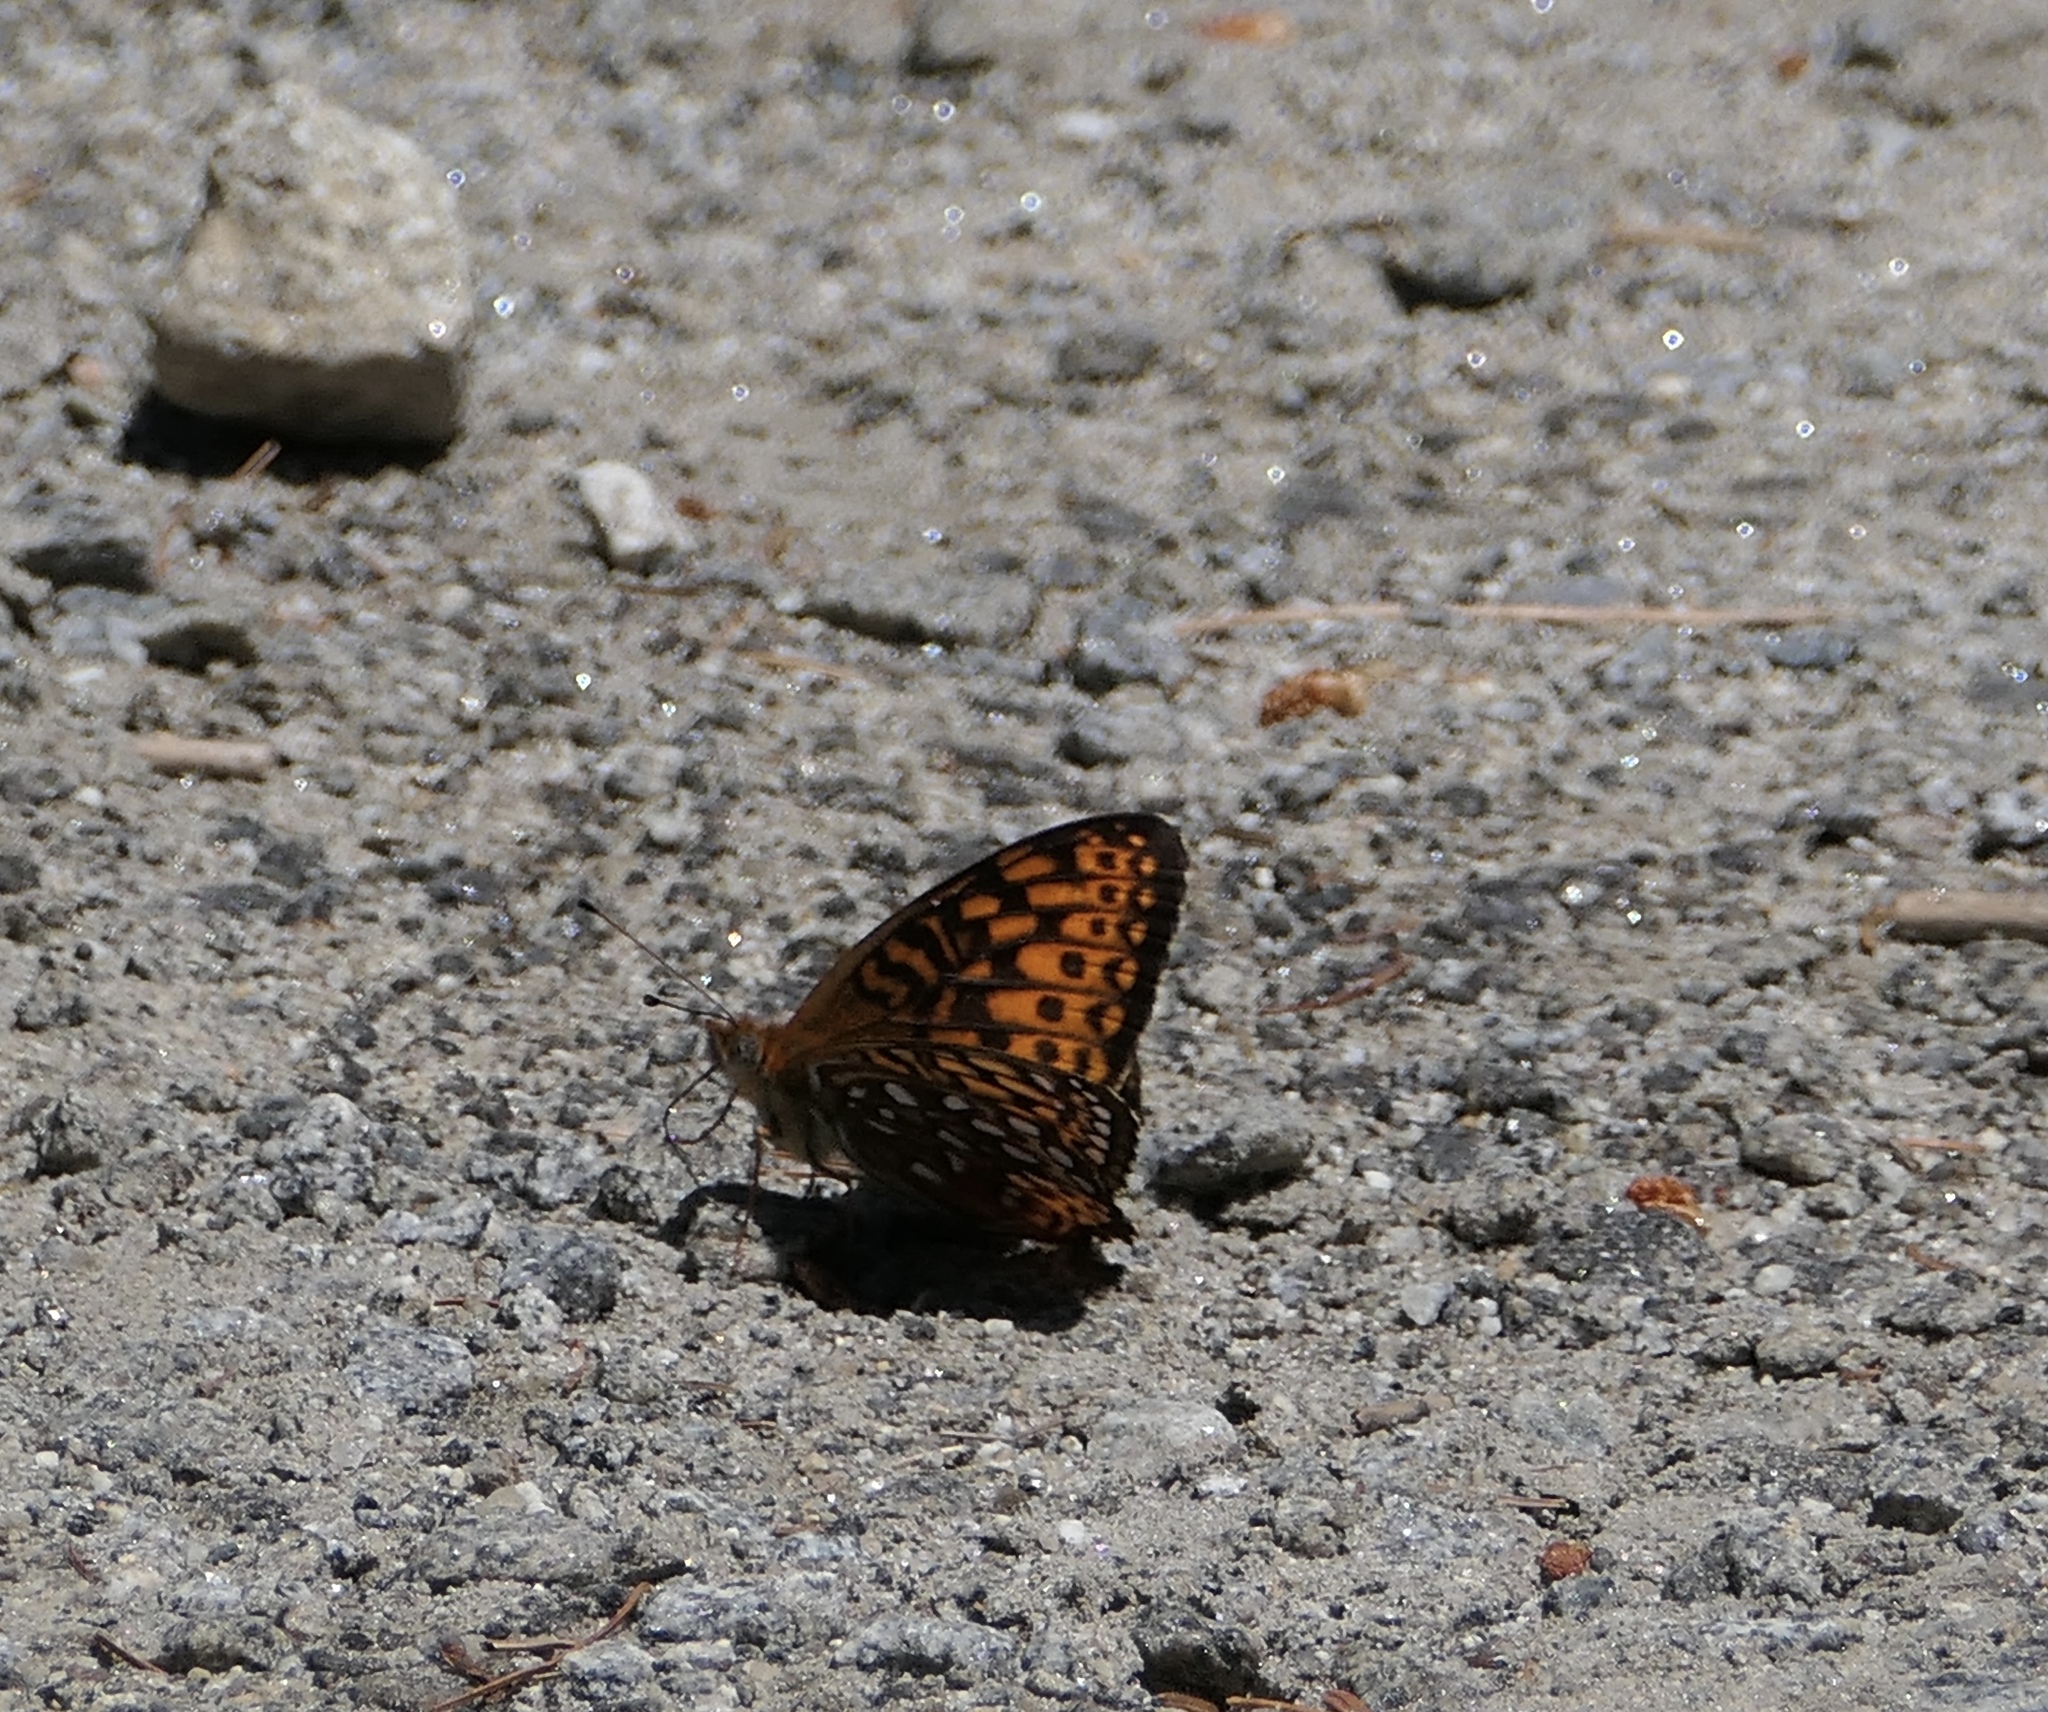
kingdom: Animalia
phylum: Arthropoda
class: Insecta
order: Lepidoptera
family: Nymphalidae
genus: Speyeria
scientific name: Speyeria atlantis
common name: Atlantis fritillary
